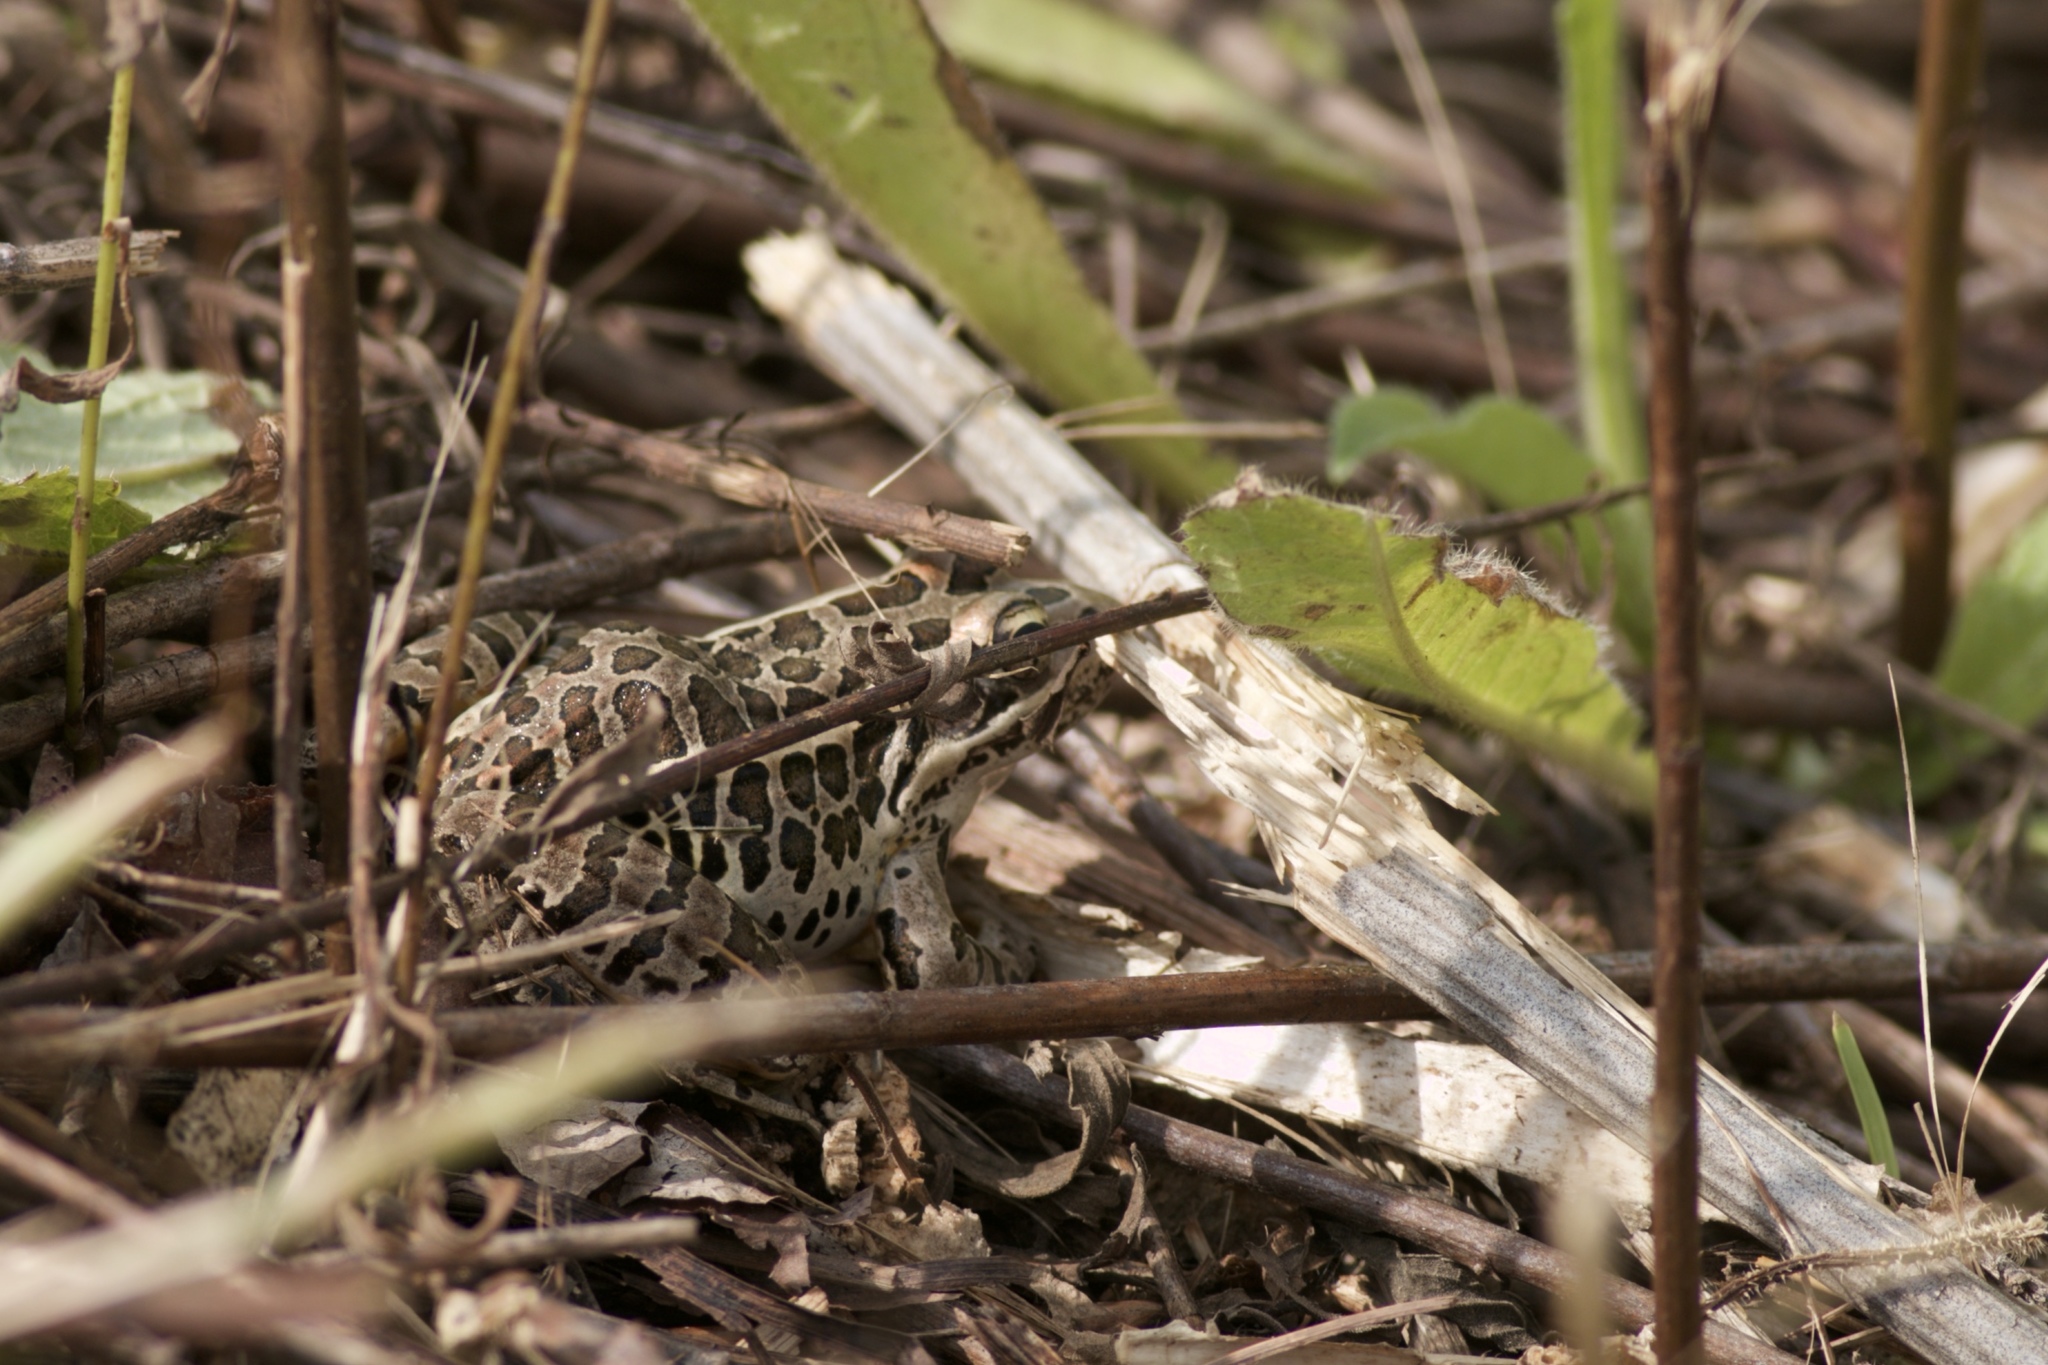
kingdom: Animalia
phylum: Chordata
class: Amphibia
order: Anura
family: Ranidae
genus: Lithobates
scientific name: Lithobates palustris
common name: Pickerel frog
